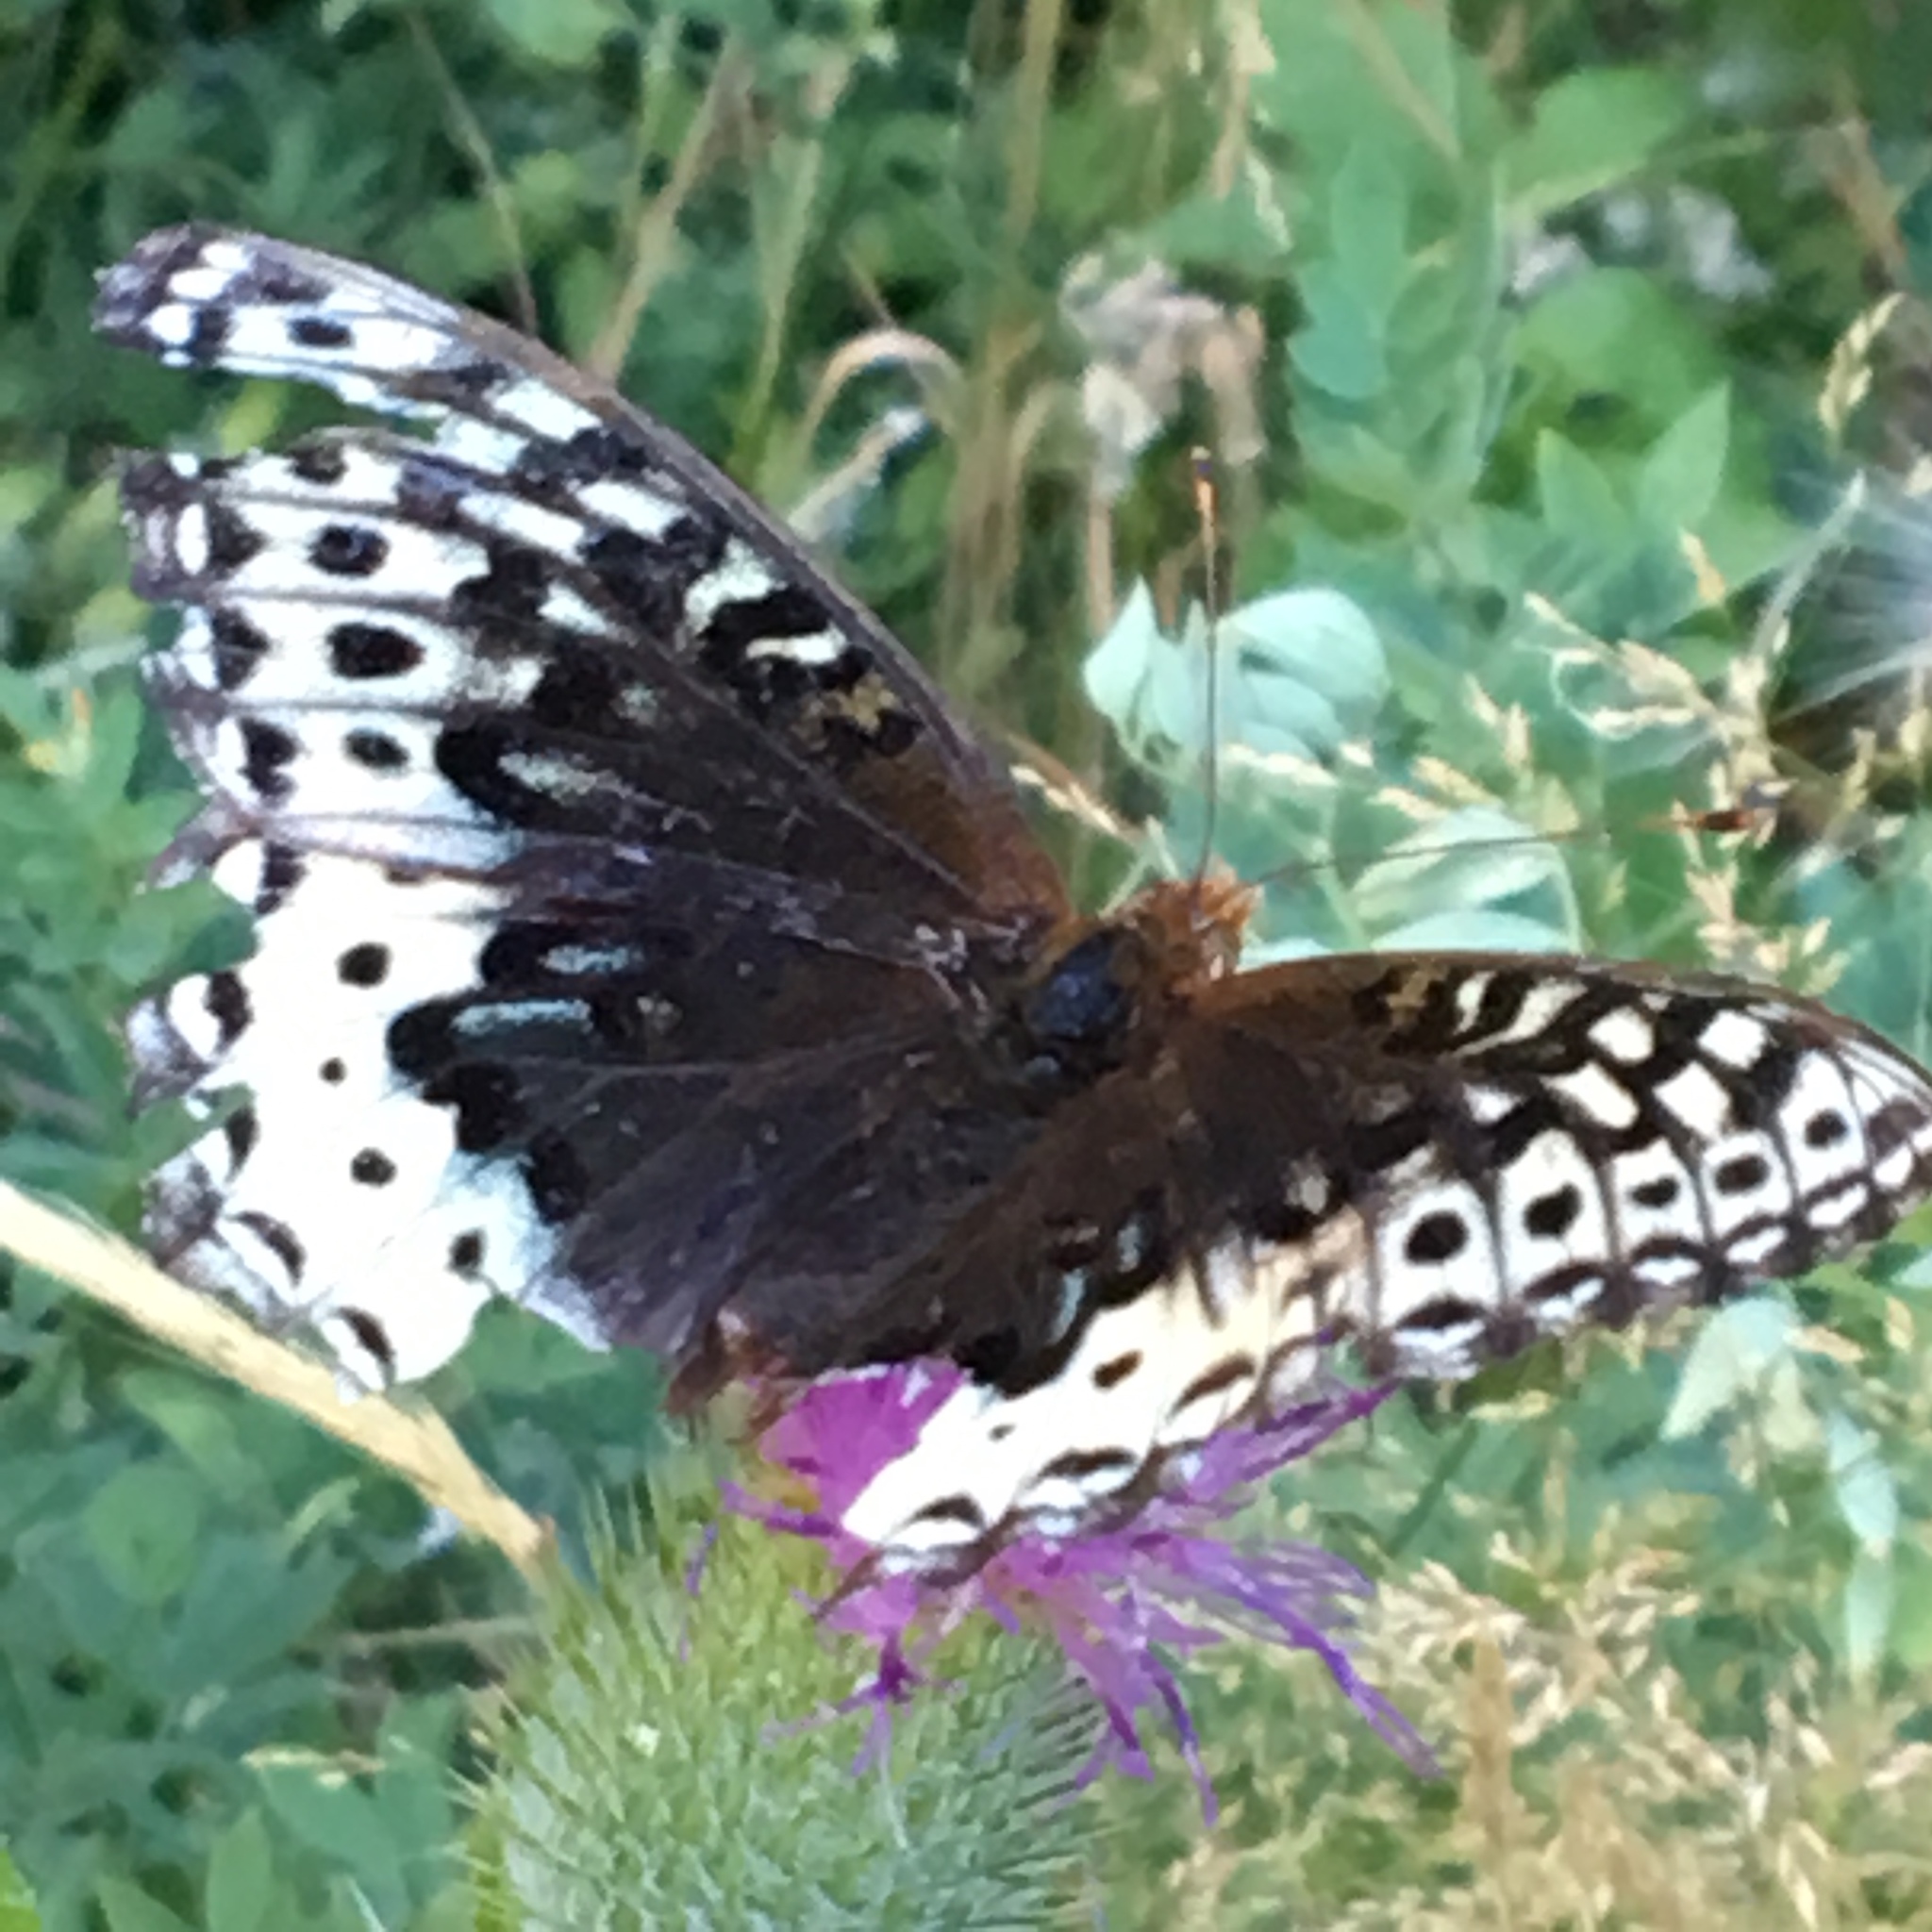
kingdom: Animalia
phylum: Arthropoda
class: Insecta
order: Lepidoptera
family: Nymphalidae
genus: Speyeria
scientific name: Speyeria cybele
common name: Great spangled fritillary
